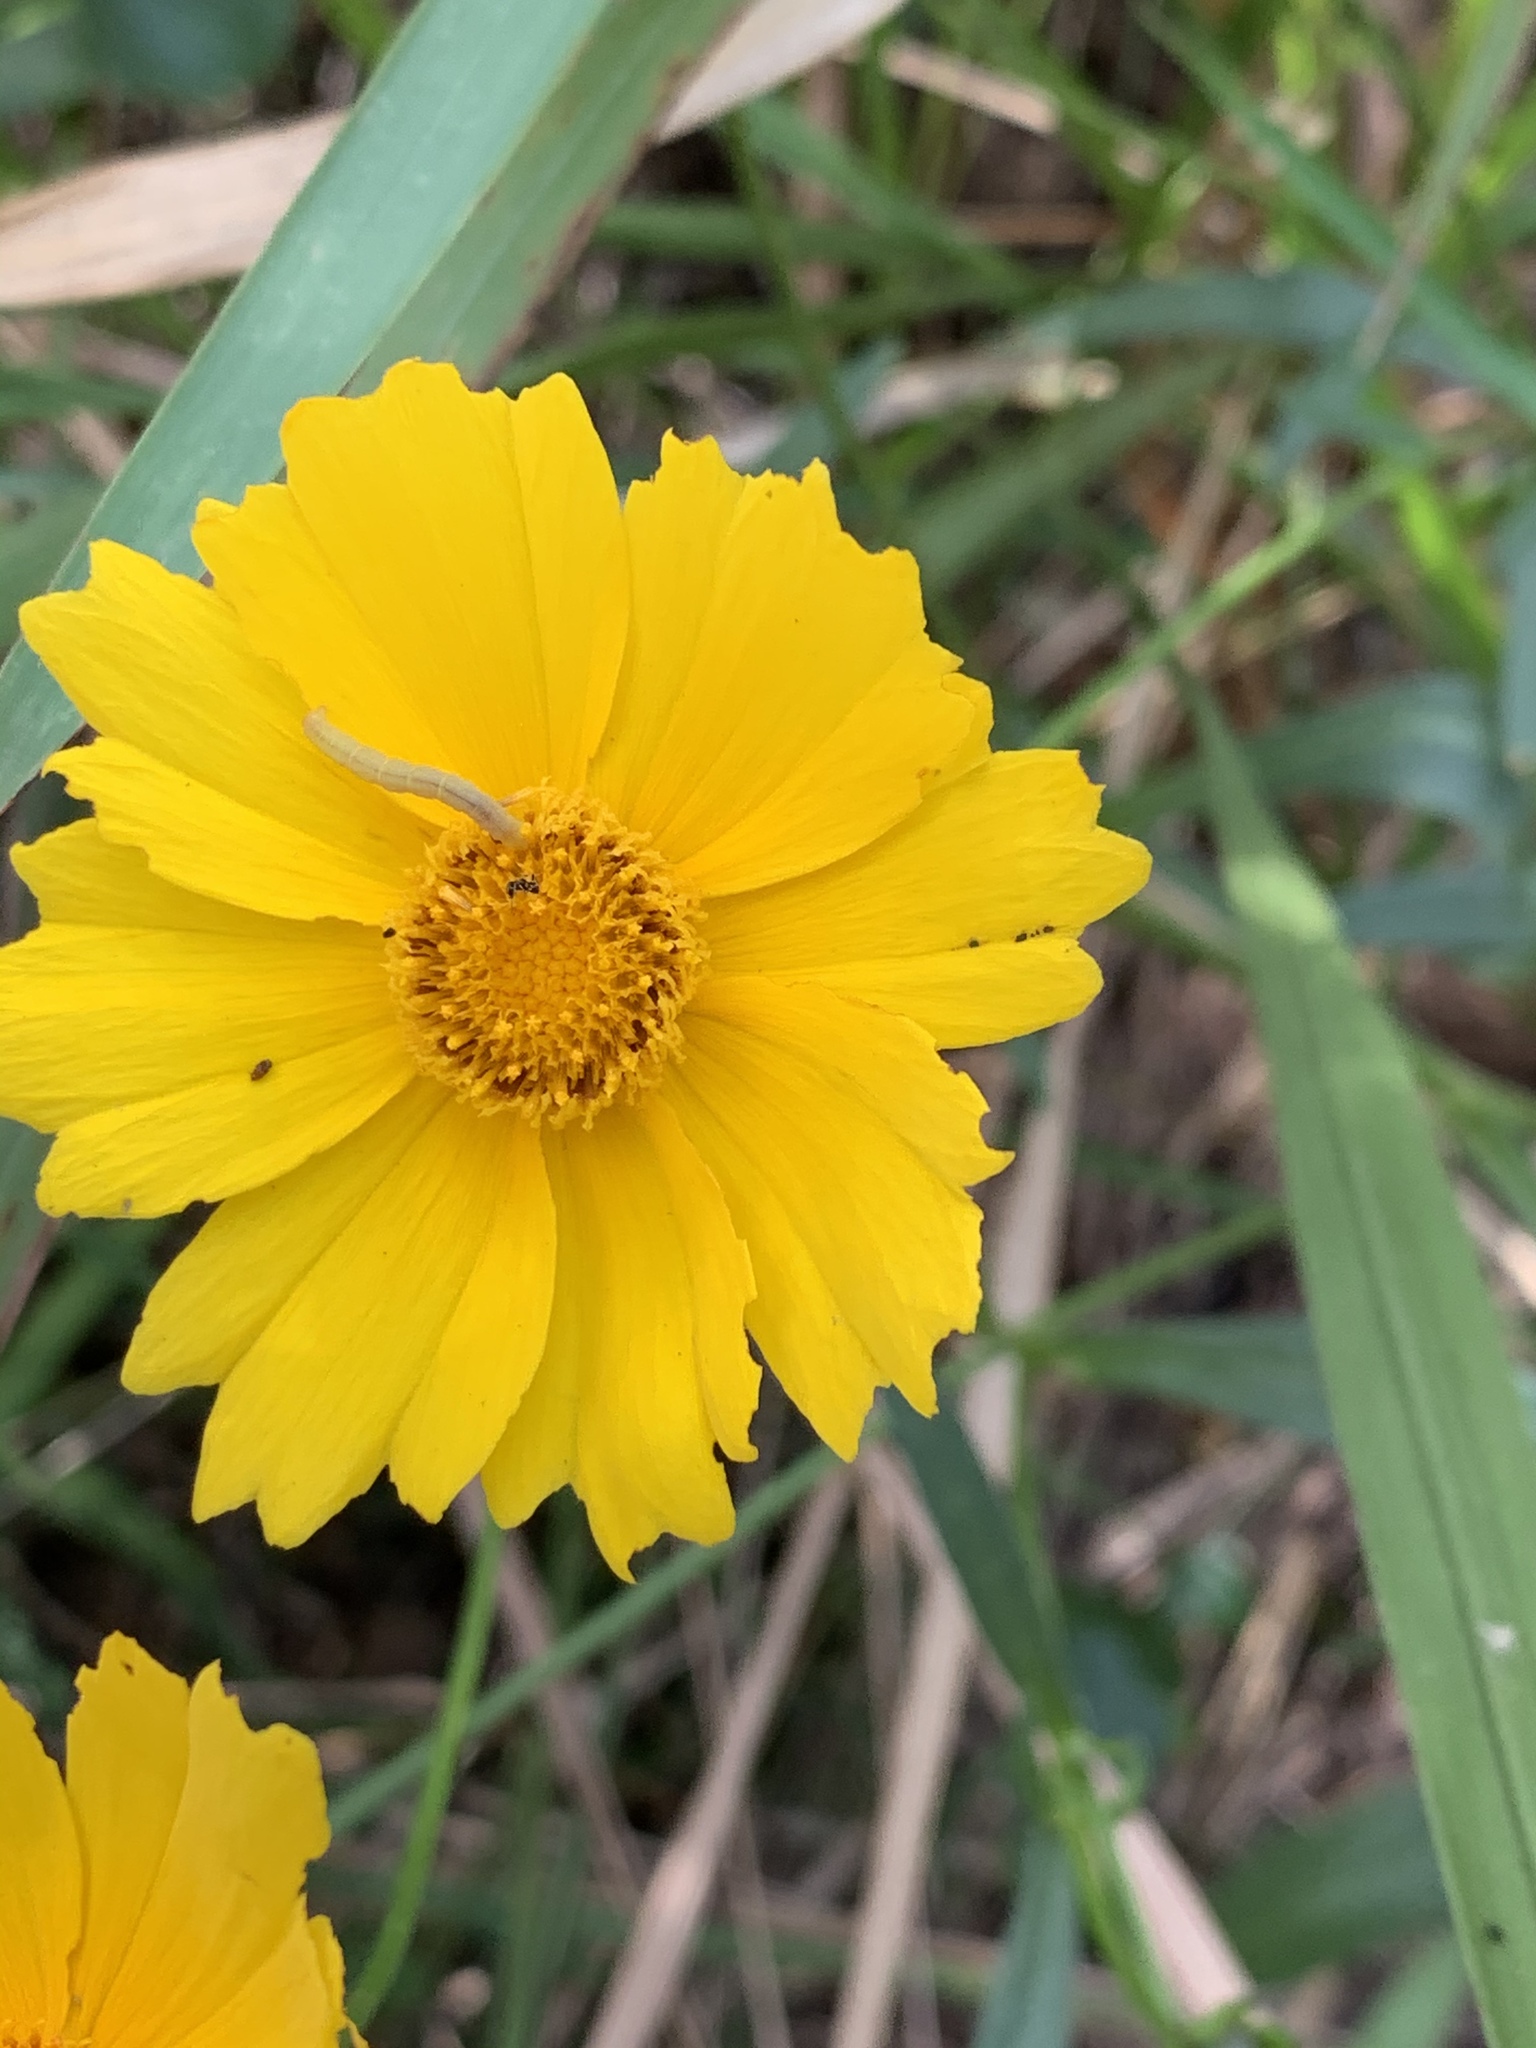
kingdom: Plantae
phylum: Tracheophyta
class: Magnoliopsida
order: Asterales
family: Asteraceae
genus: Coreopsis
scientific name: Coreopsis lanceolata
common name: Garden coreopsis
